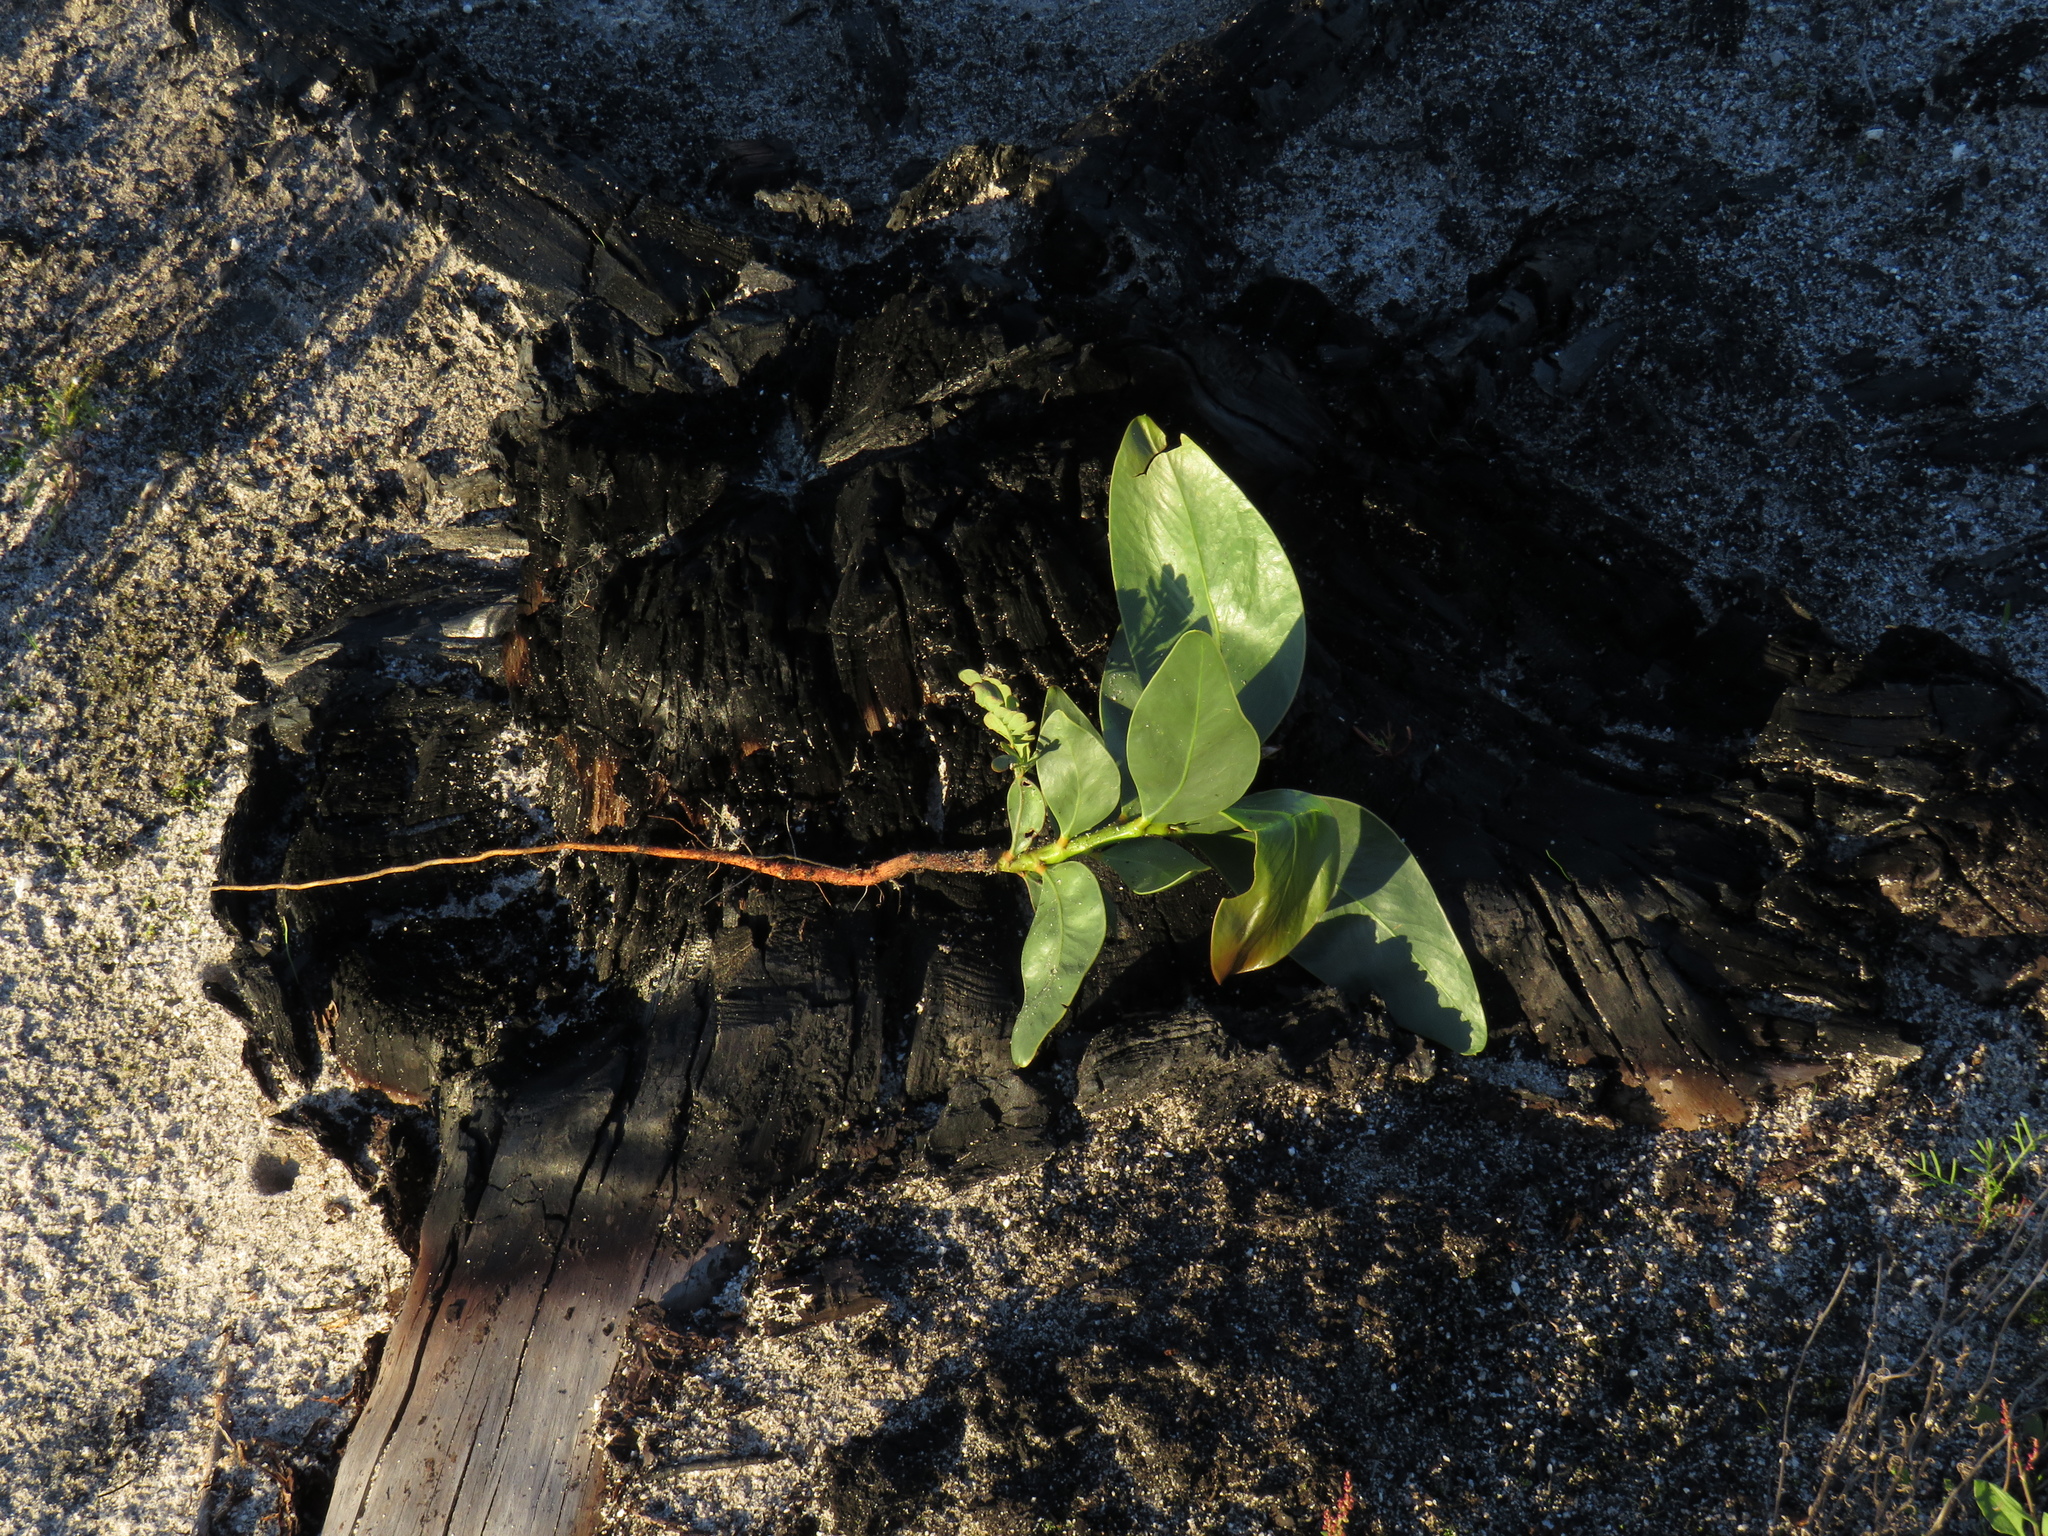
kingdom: Plantae
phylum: Tracheophyta
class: Magnoliopsida
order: Fabales
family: Fabaceae
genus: Acacia
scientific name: Acacia pycnantha
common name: Golden wattle
